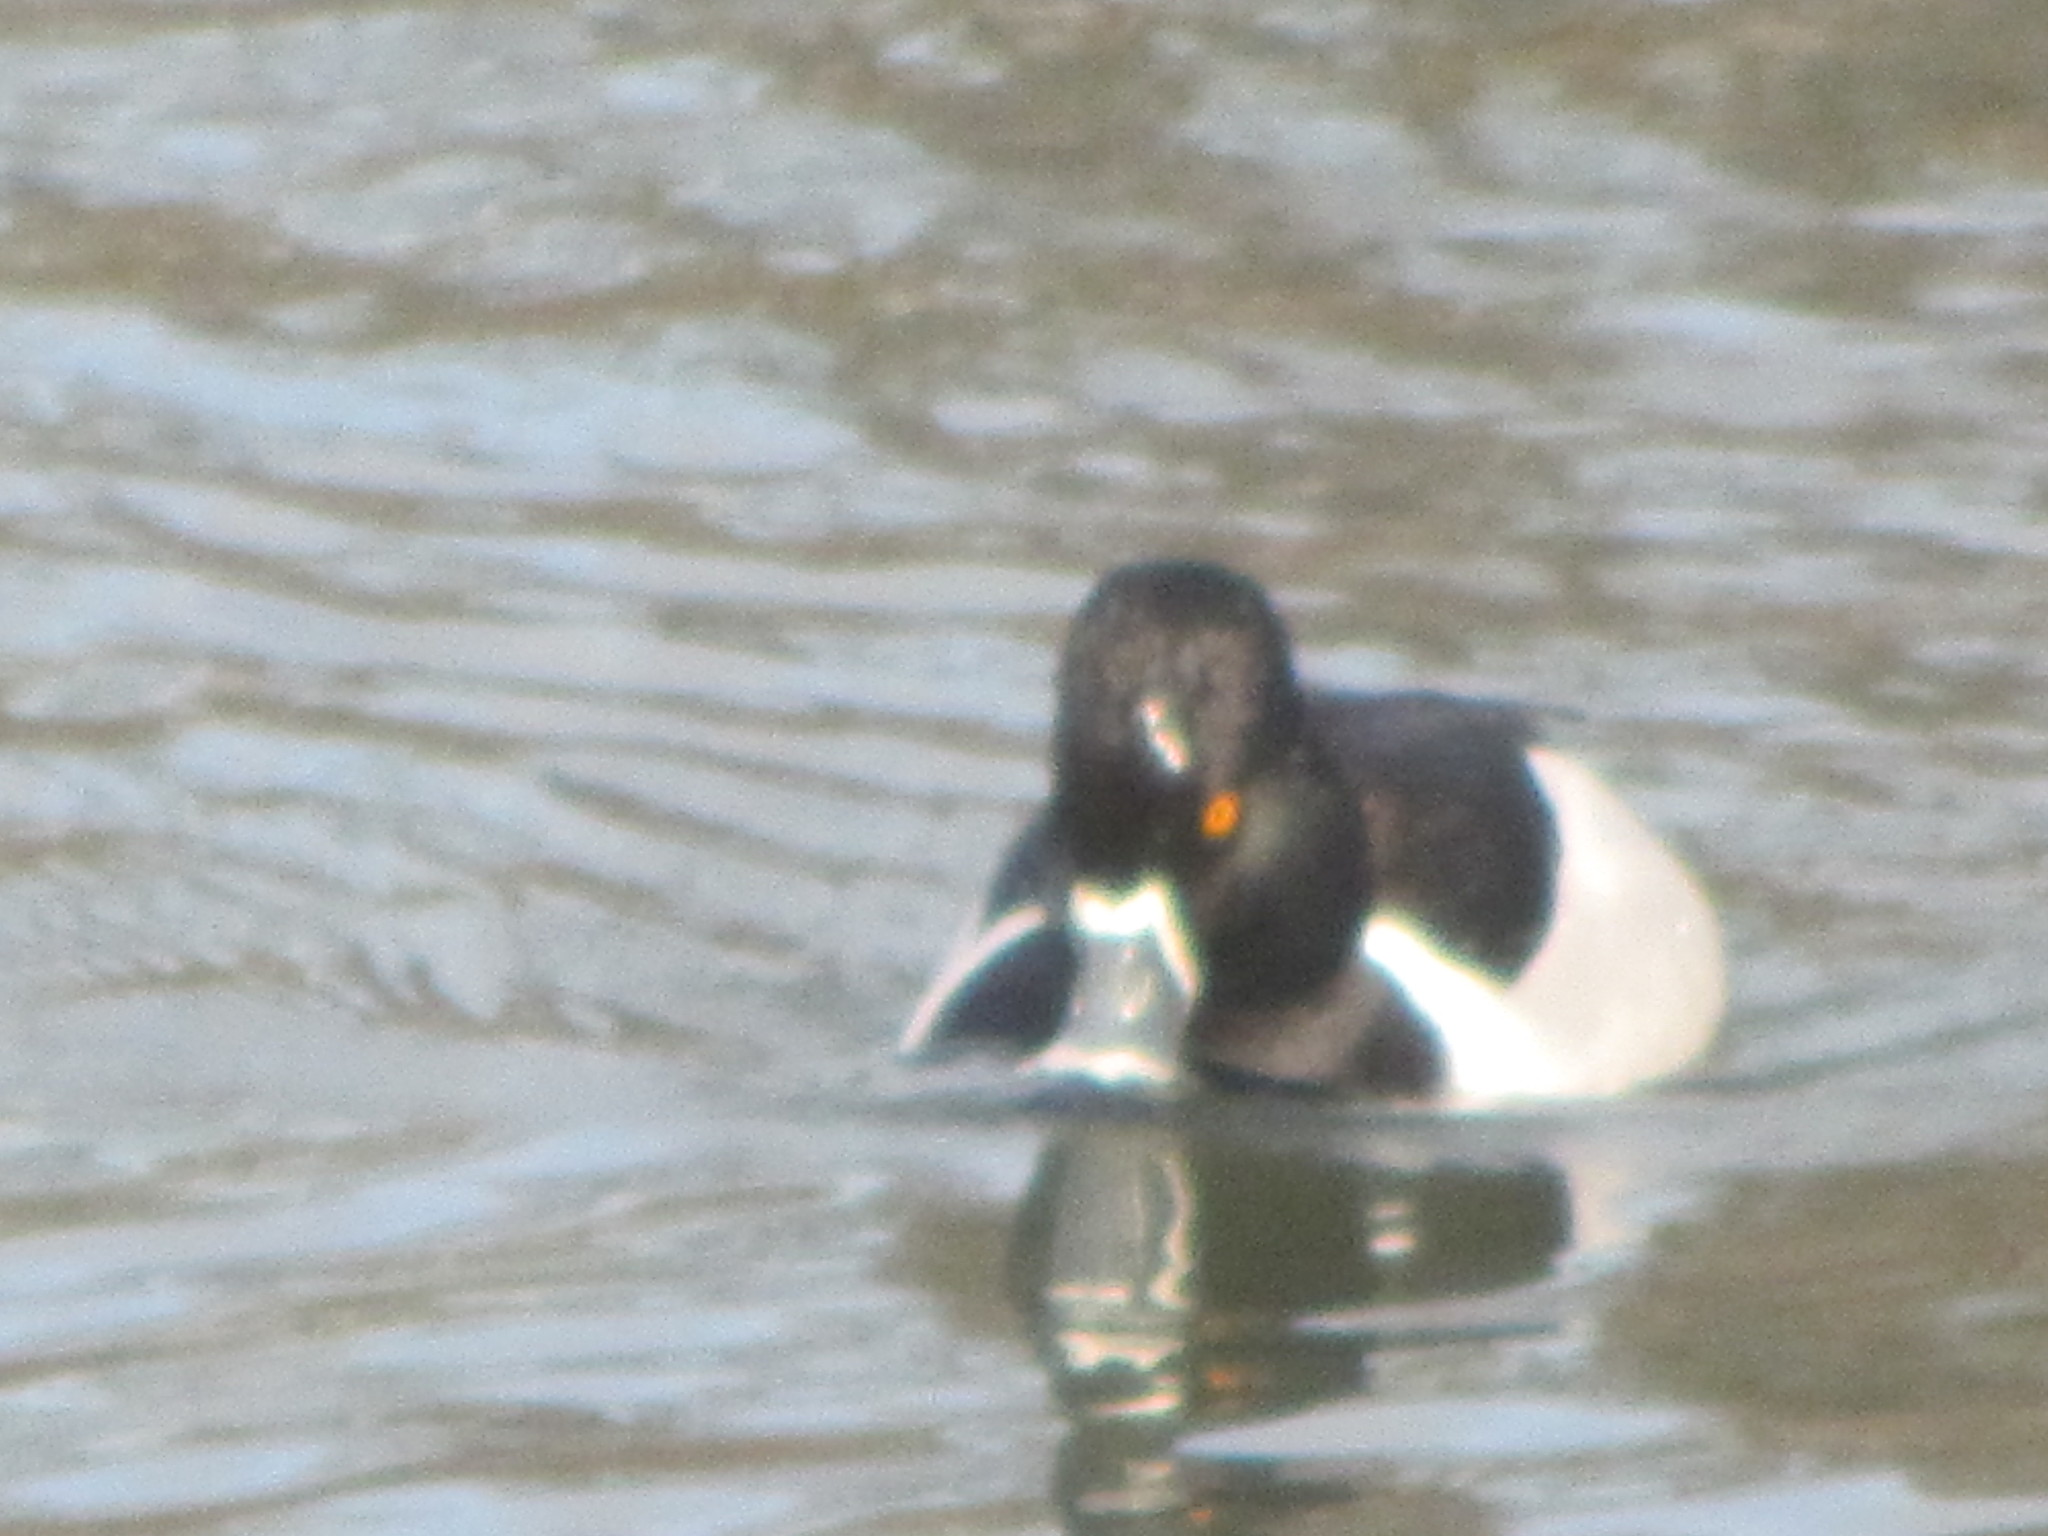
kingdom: Animalia
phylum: Chordata
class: Aves
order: Anseriformes
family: Anatidae
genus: Aythya
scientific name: Aythya collaris
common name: Ring-necked duck
